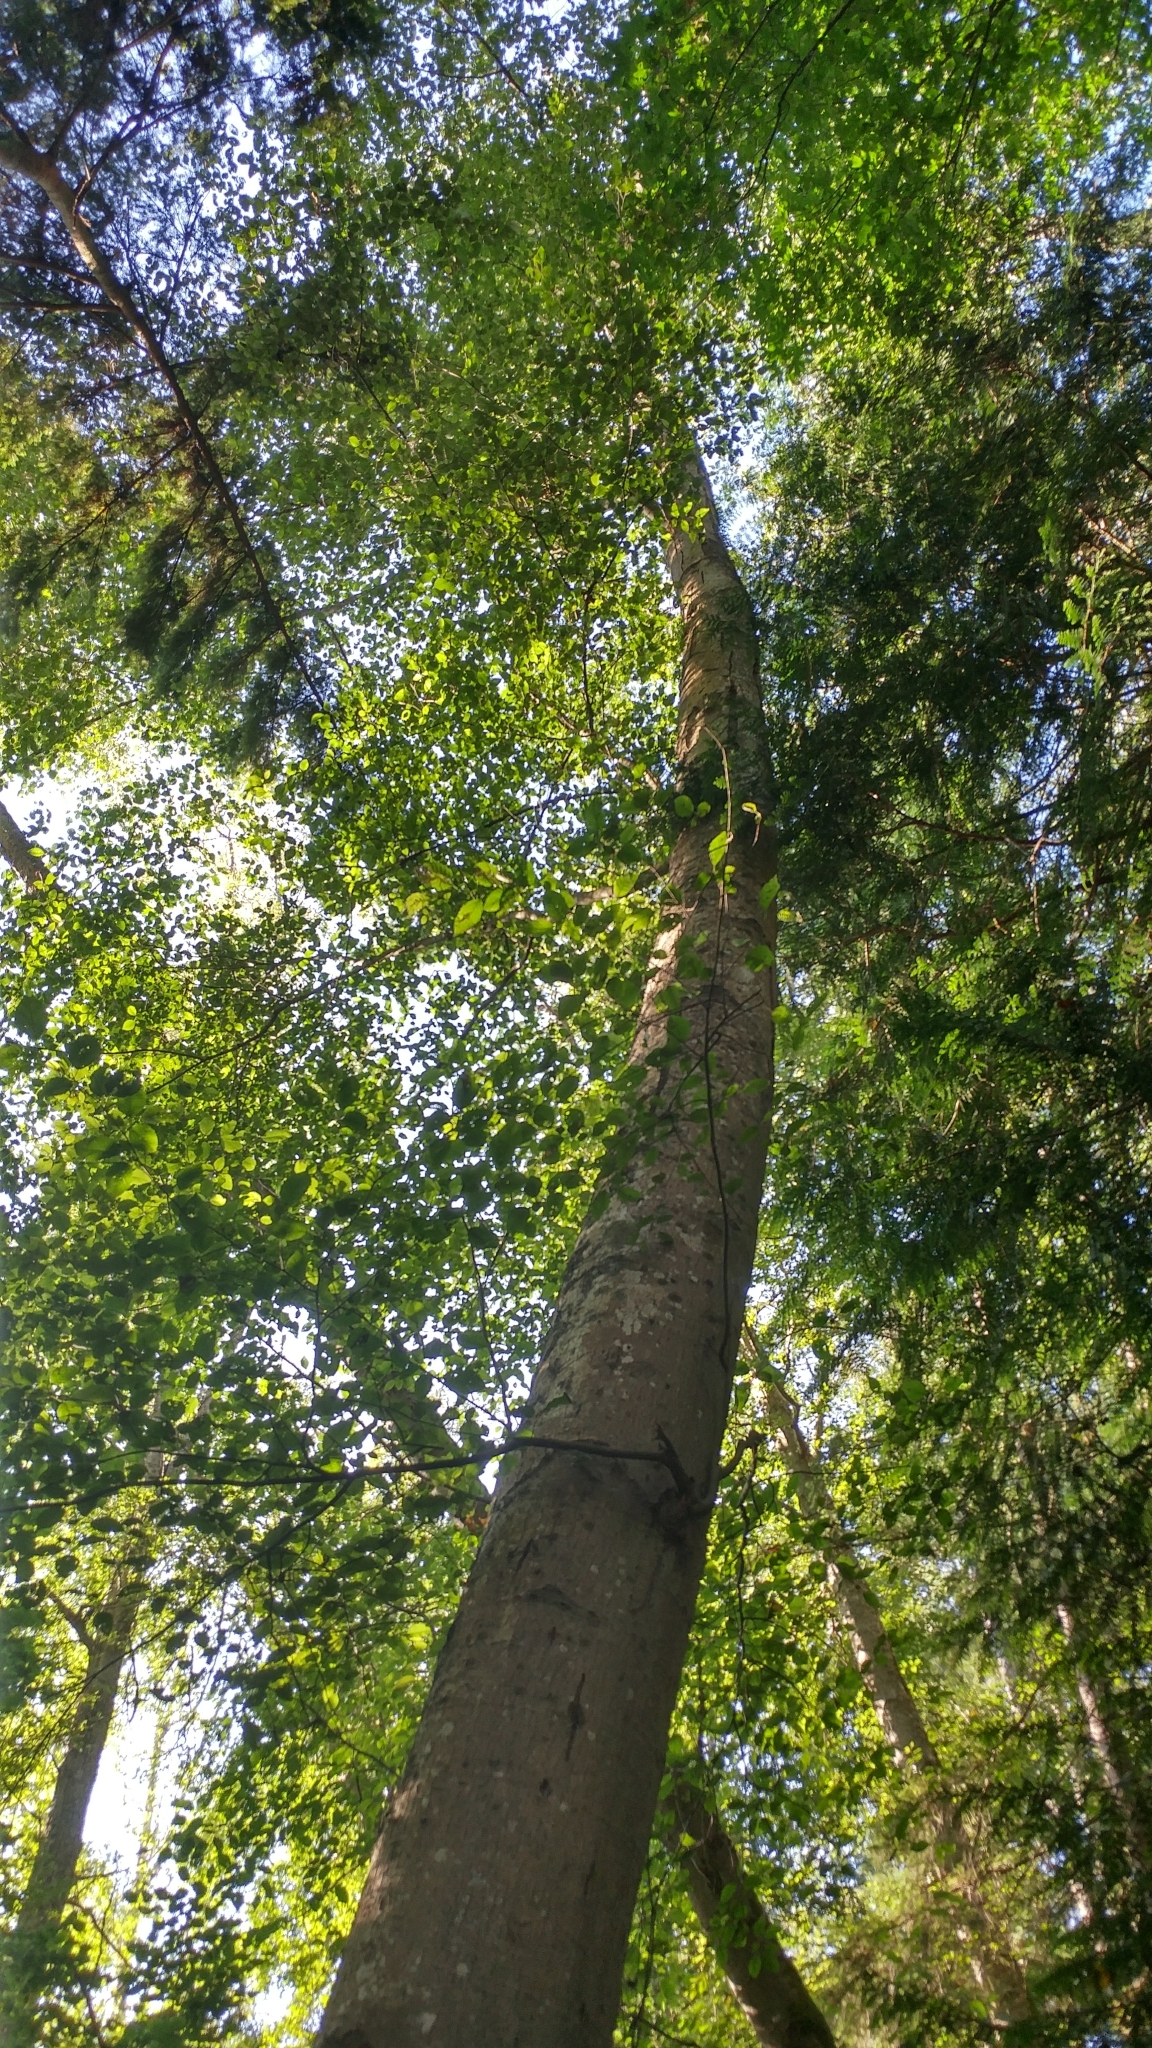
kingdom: Plantae
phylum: Tracheophyta
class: Magnoliopsida
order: Fagales
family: Betulaceae
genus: Alnus
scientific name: Alnus rubra
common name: Red alder
